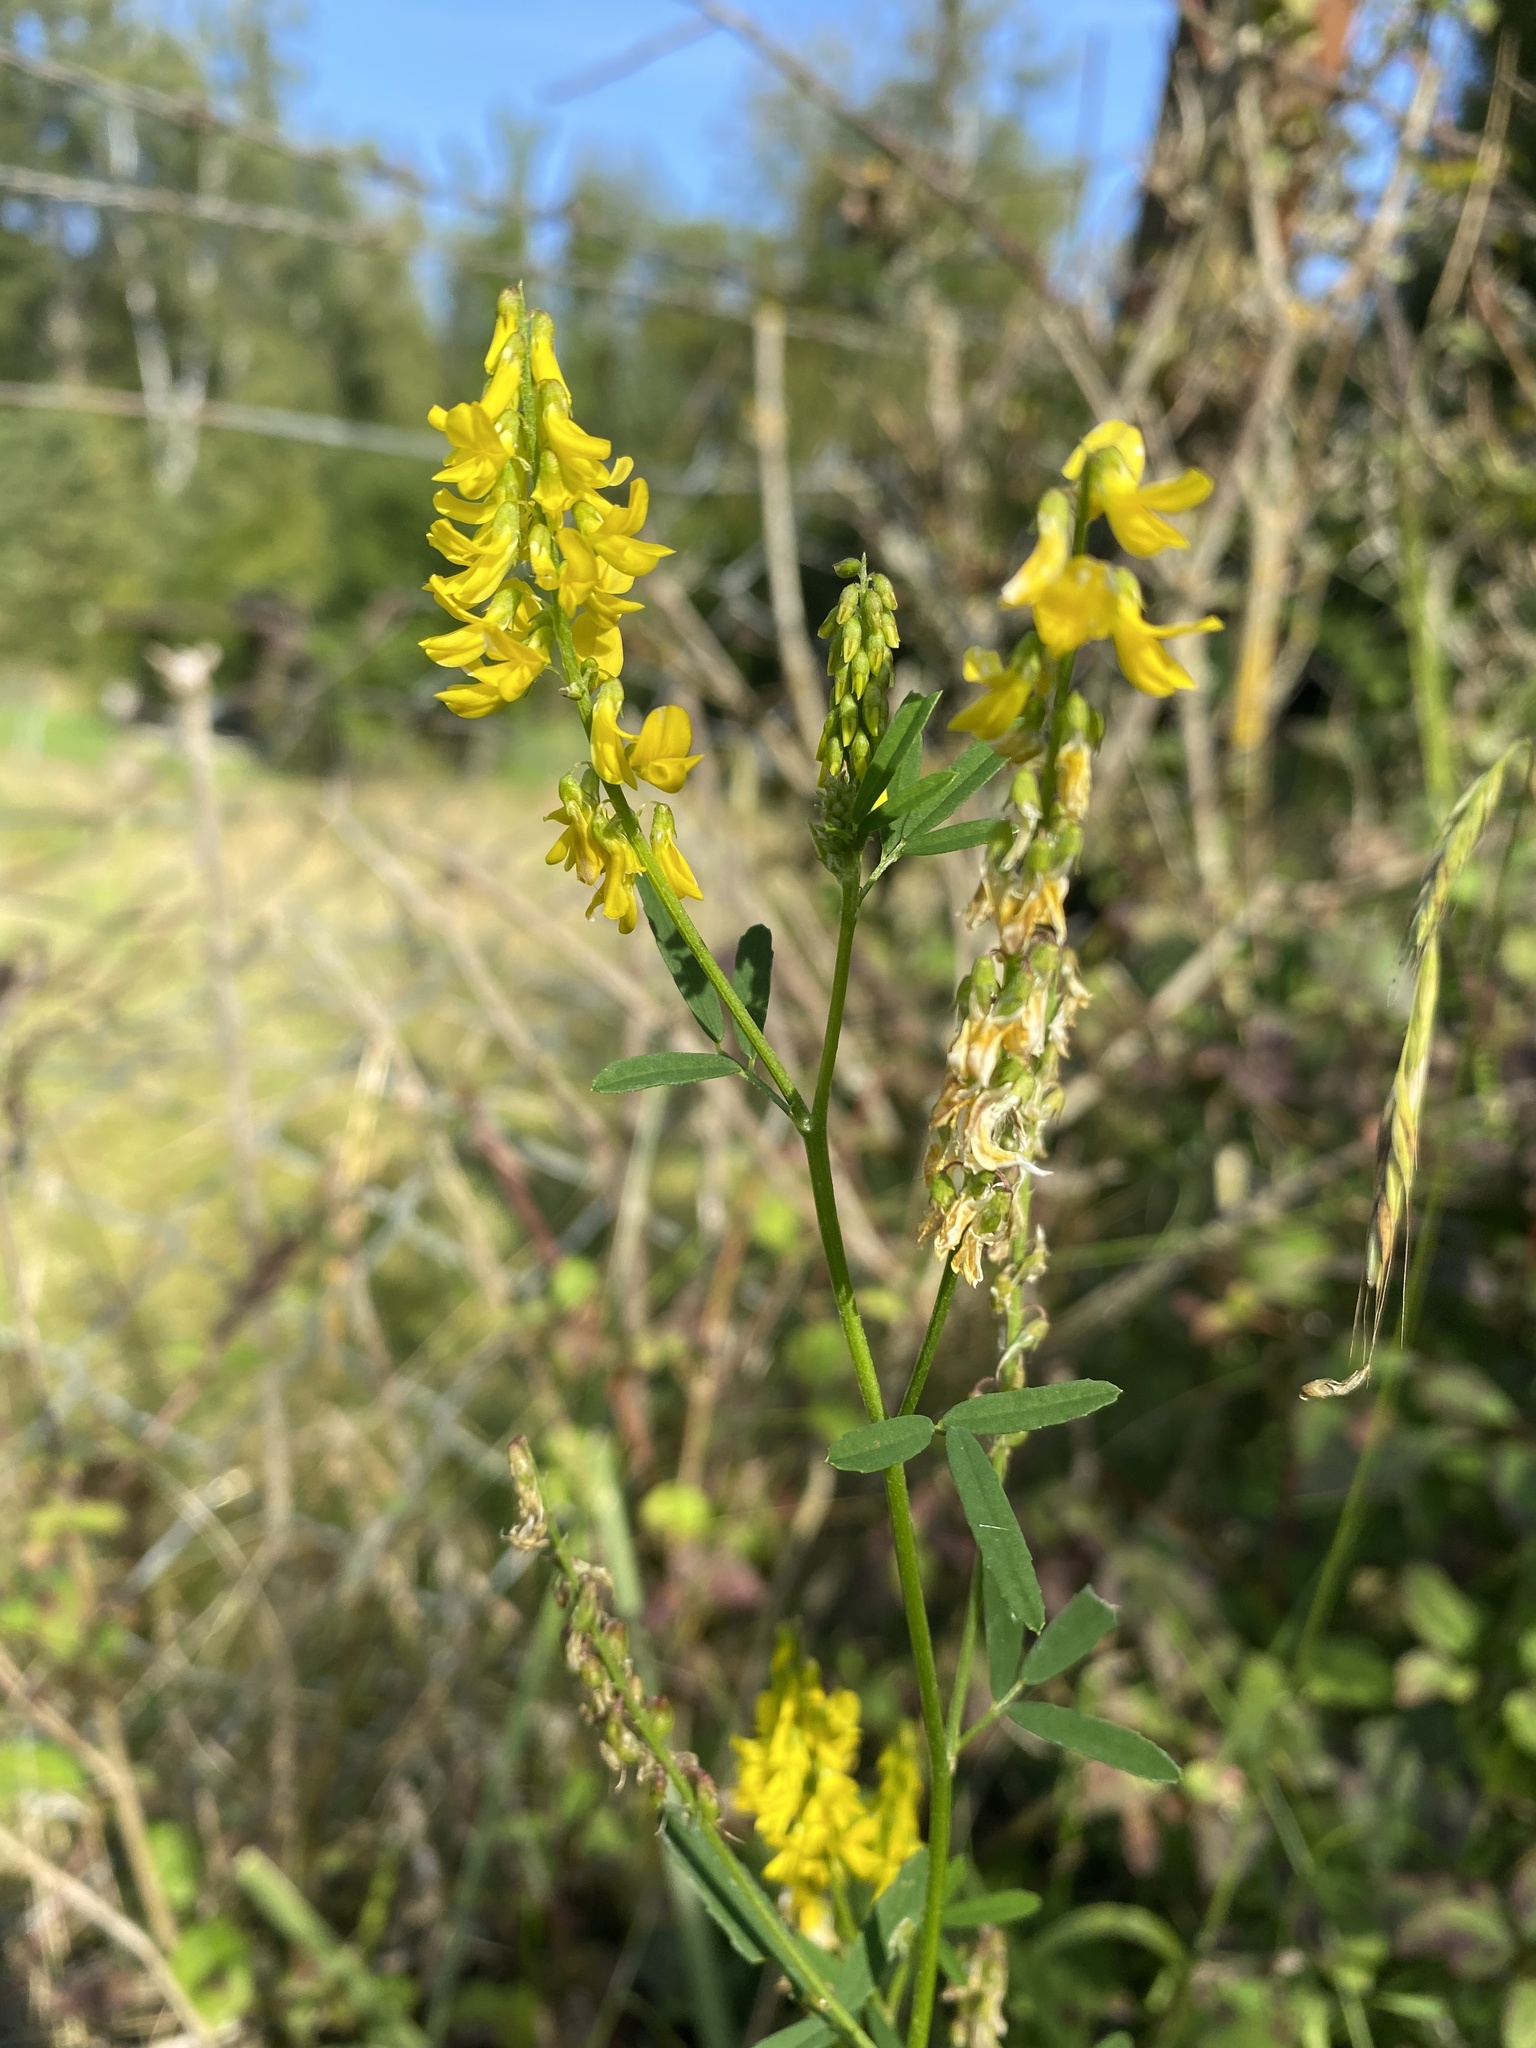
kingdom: Plantae
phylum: Tracheophyta
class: Magnoliopsida
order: Fabales
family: Fabaceae
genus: Melilotus
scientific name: Melilotus officinalis
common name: Sweetclover
